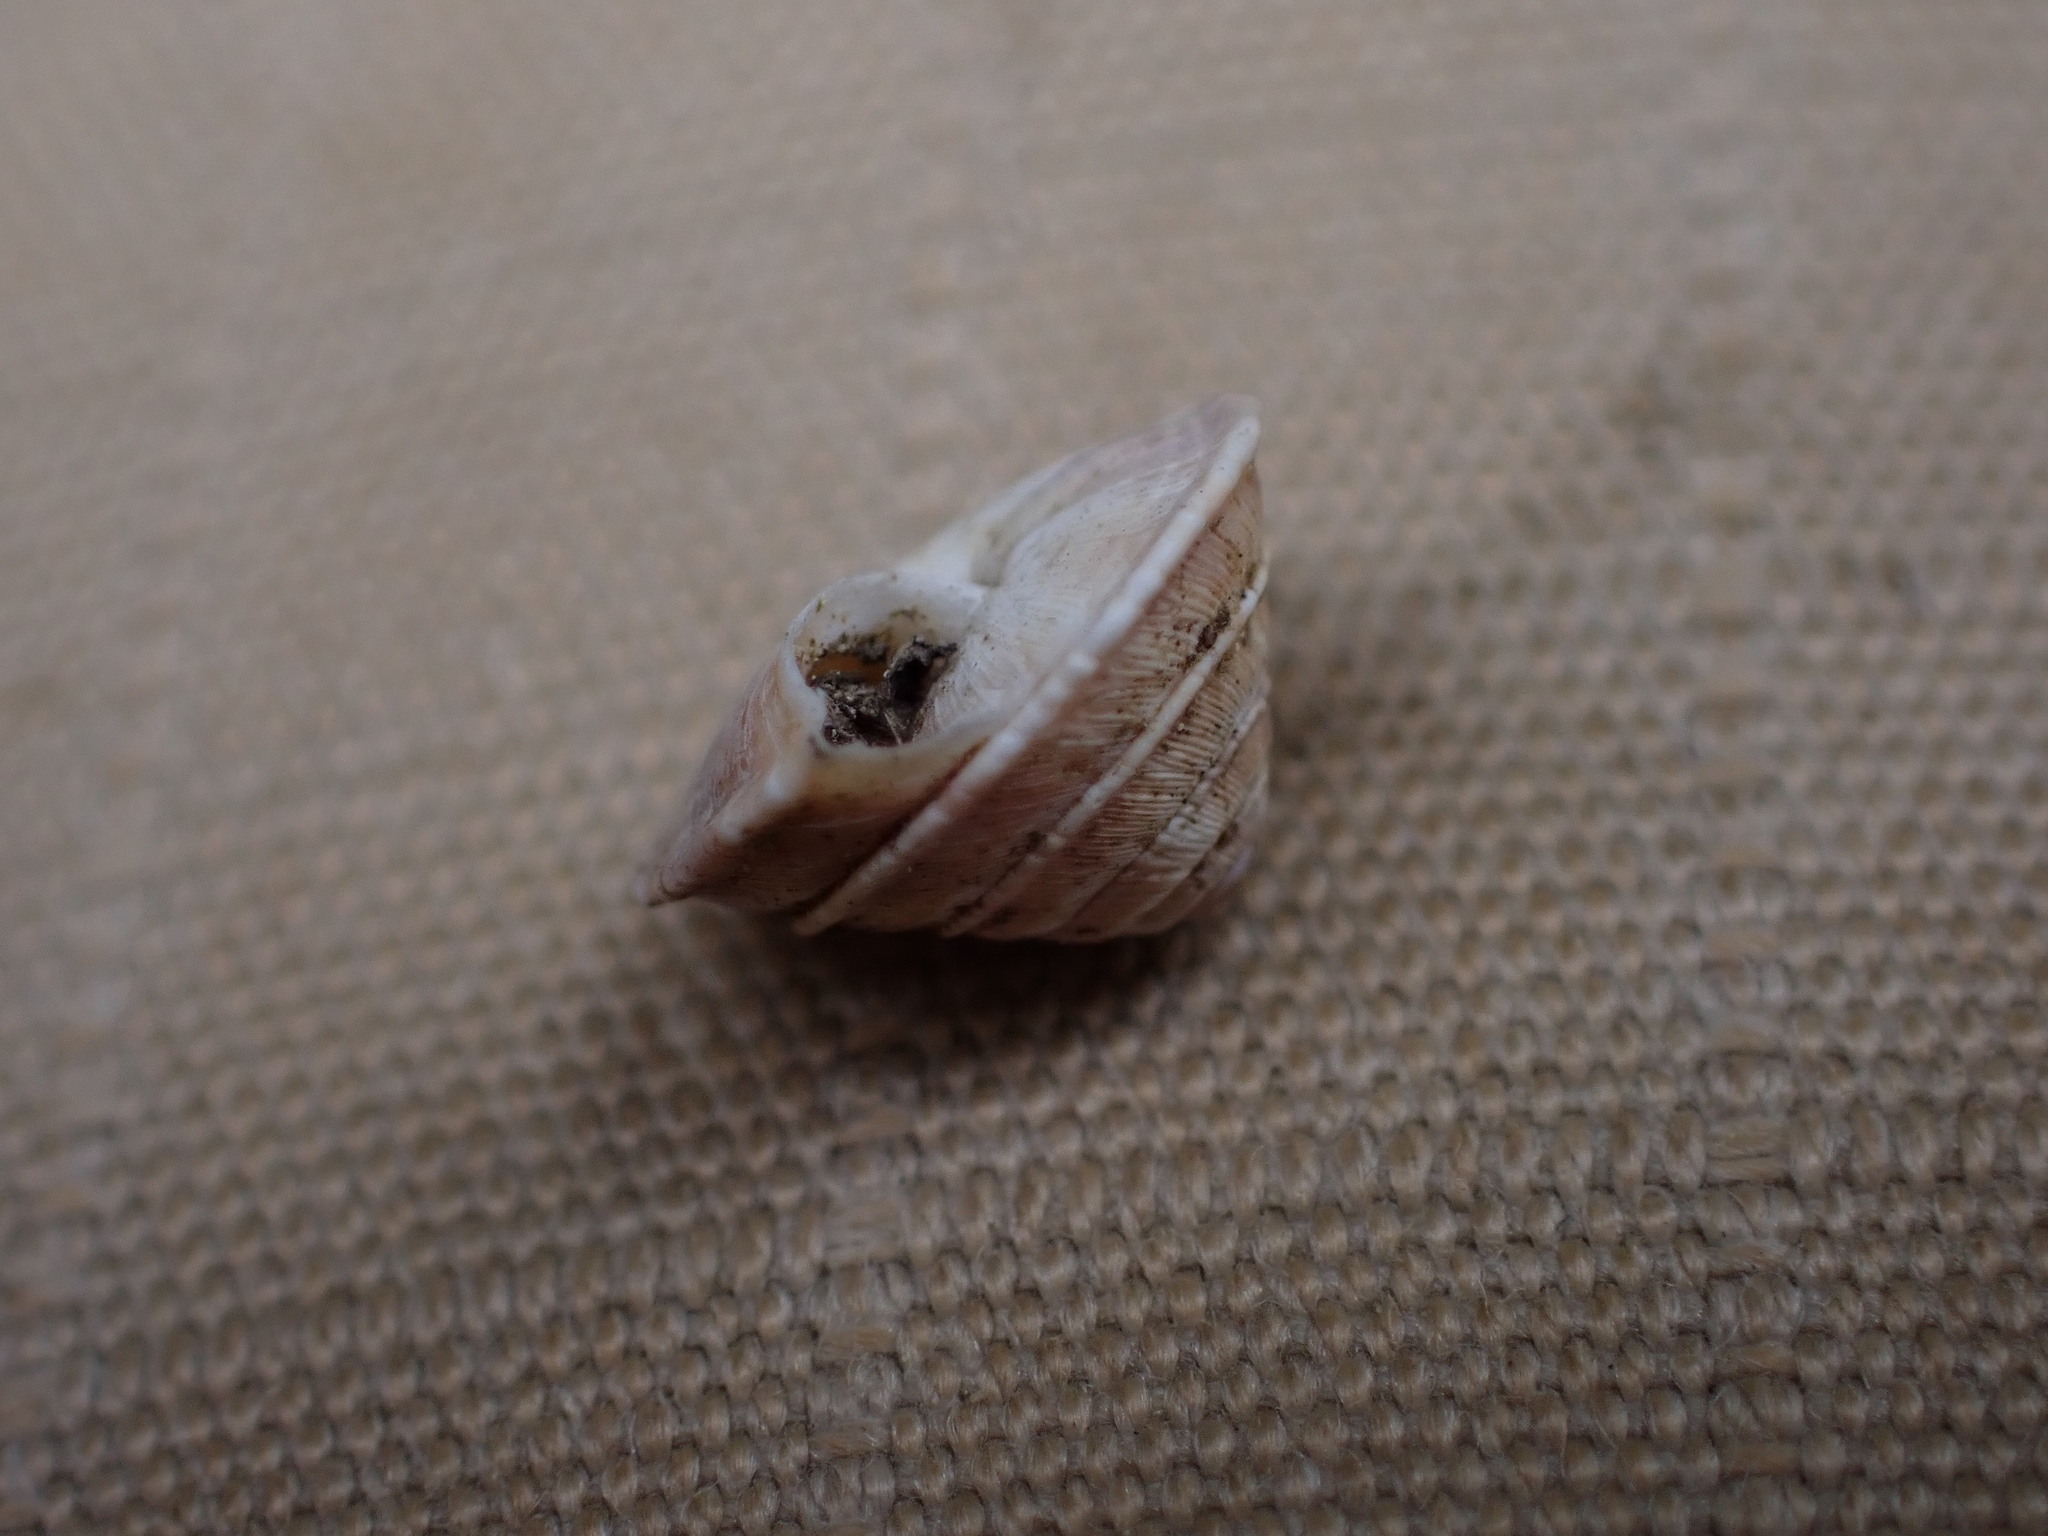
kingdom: Animalia
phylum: Mollusca
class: Gastropoda
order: Stylommatophora
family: Geomitridae
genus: Trochoidea
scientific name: Trochoidea elegans
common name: Elegant helicellid
